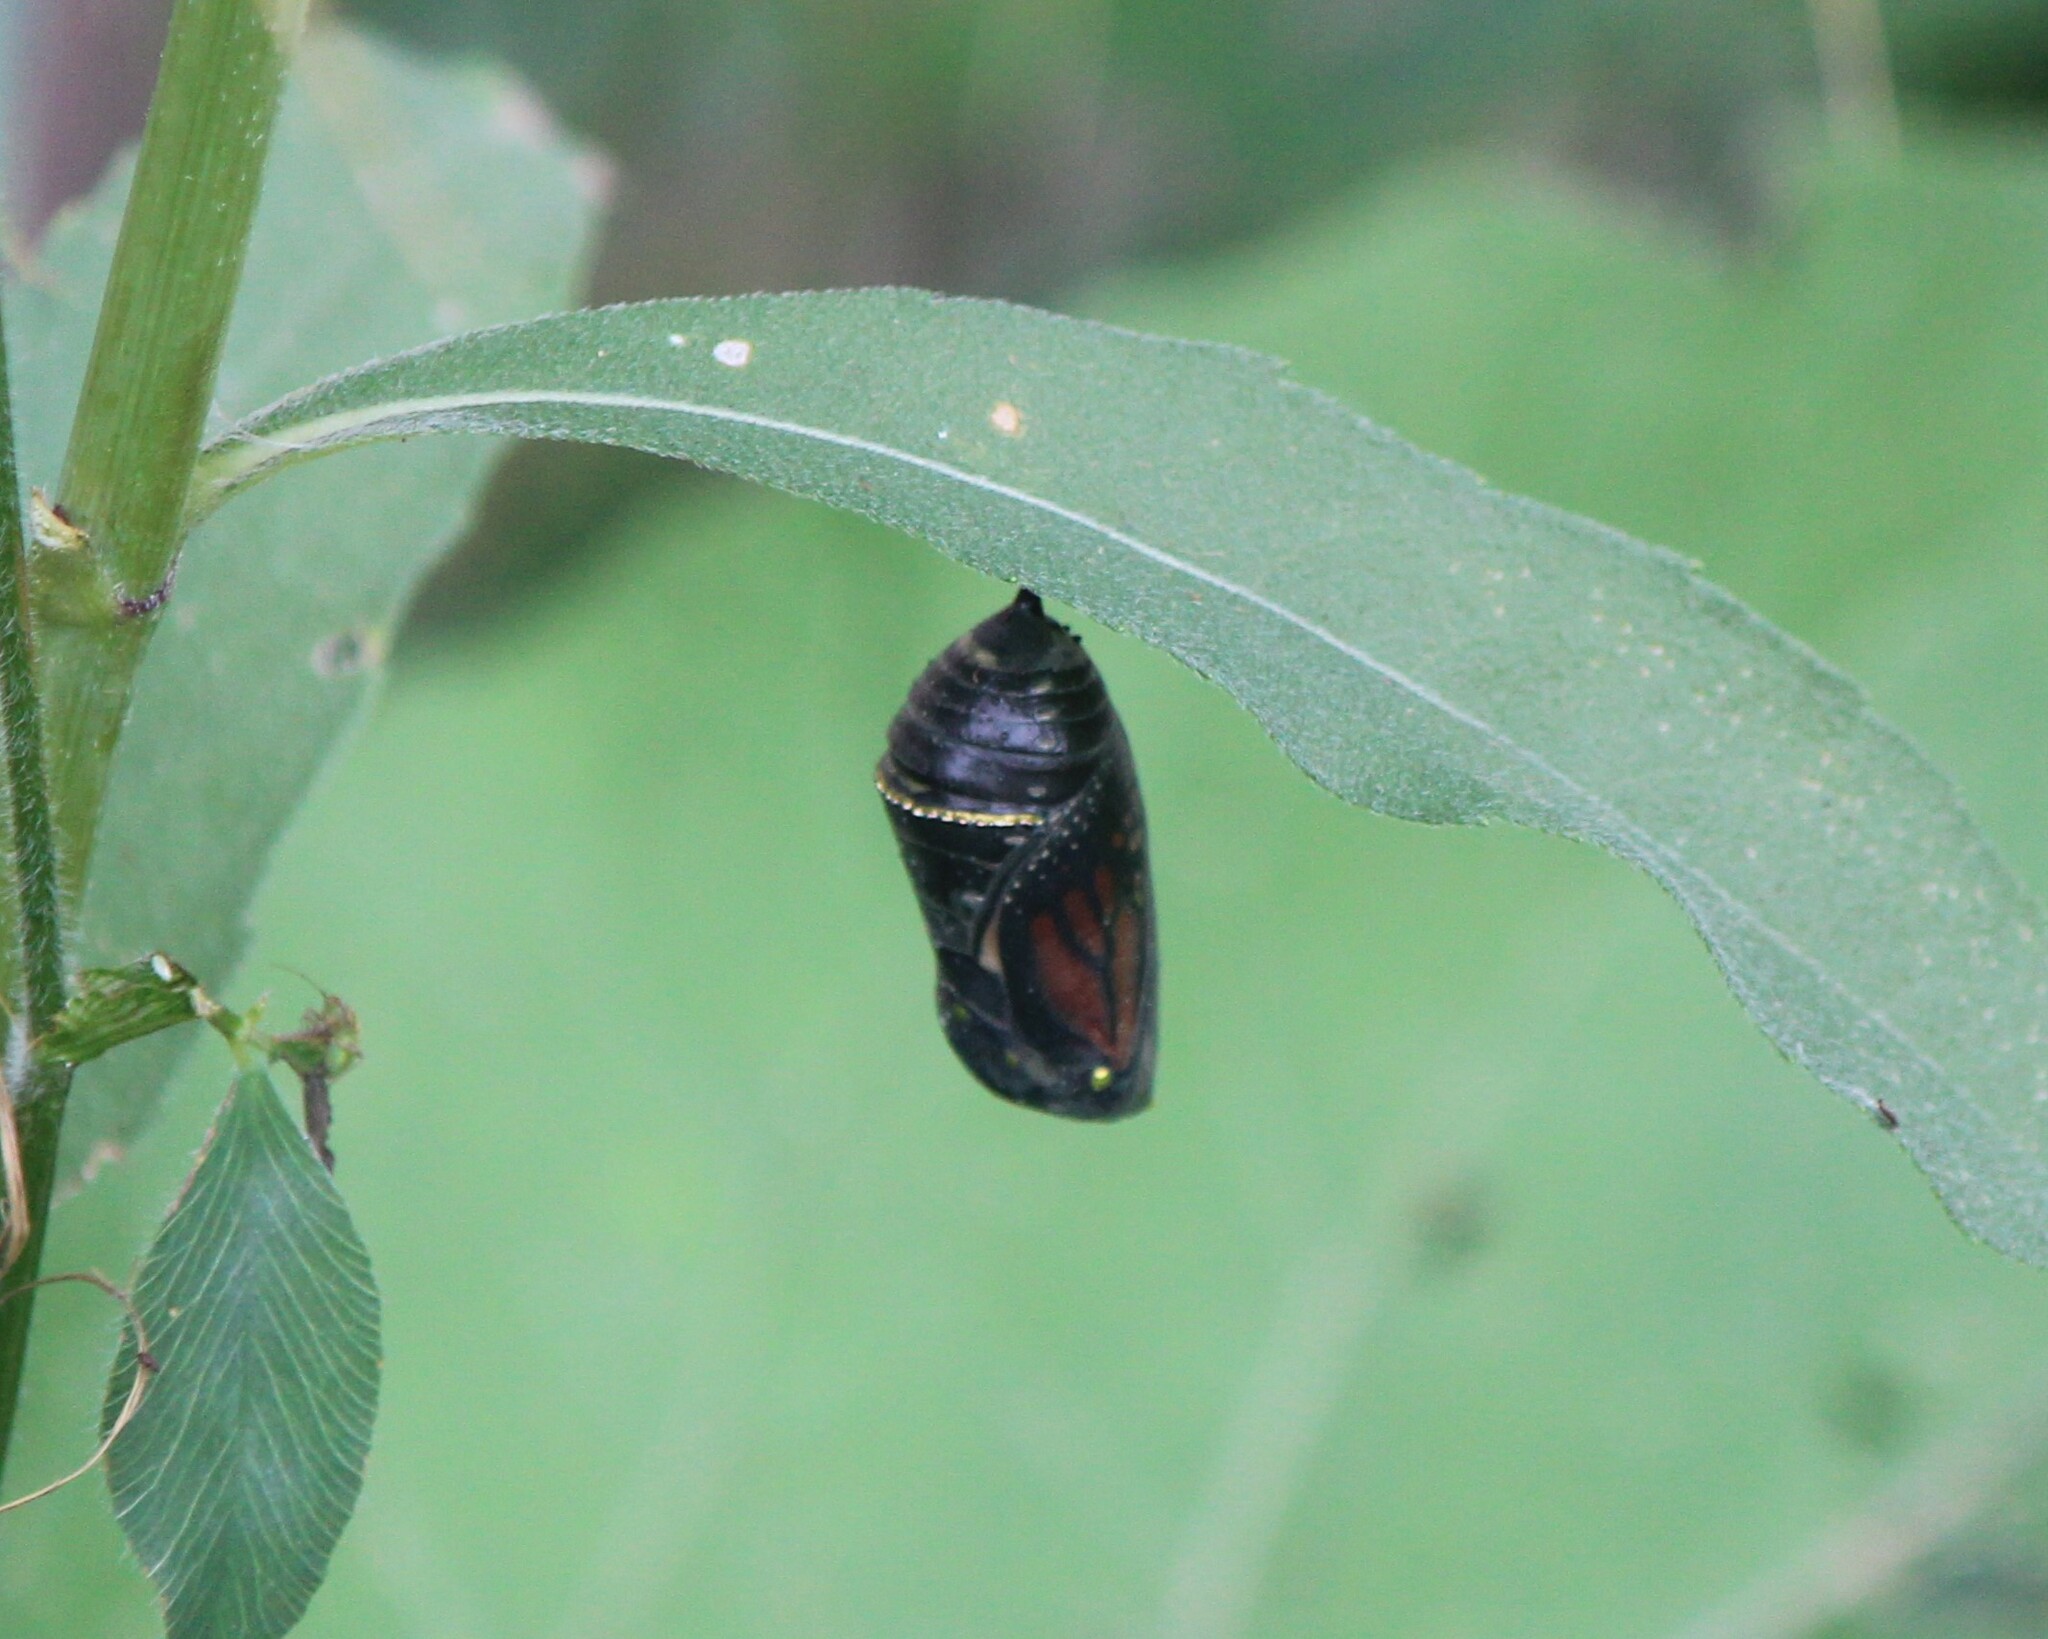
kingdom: Animalia
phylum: Arthropoda
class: Insecta
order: Lepidoptera
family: Nymphalidae
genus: Danaus
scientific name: Danaus plexippus
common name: Monarch
